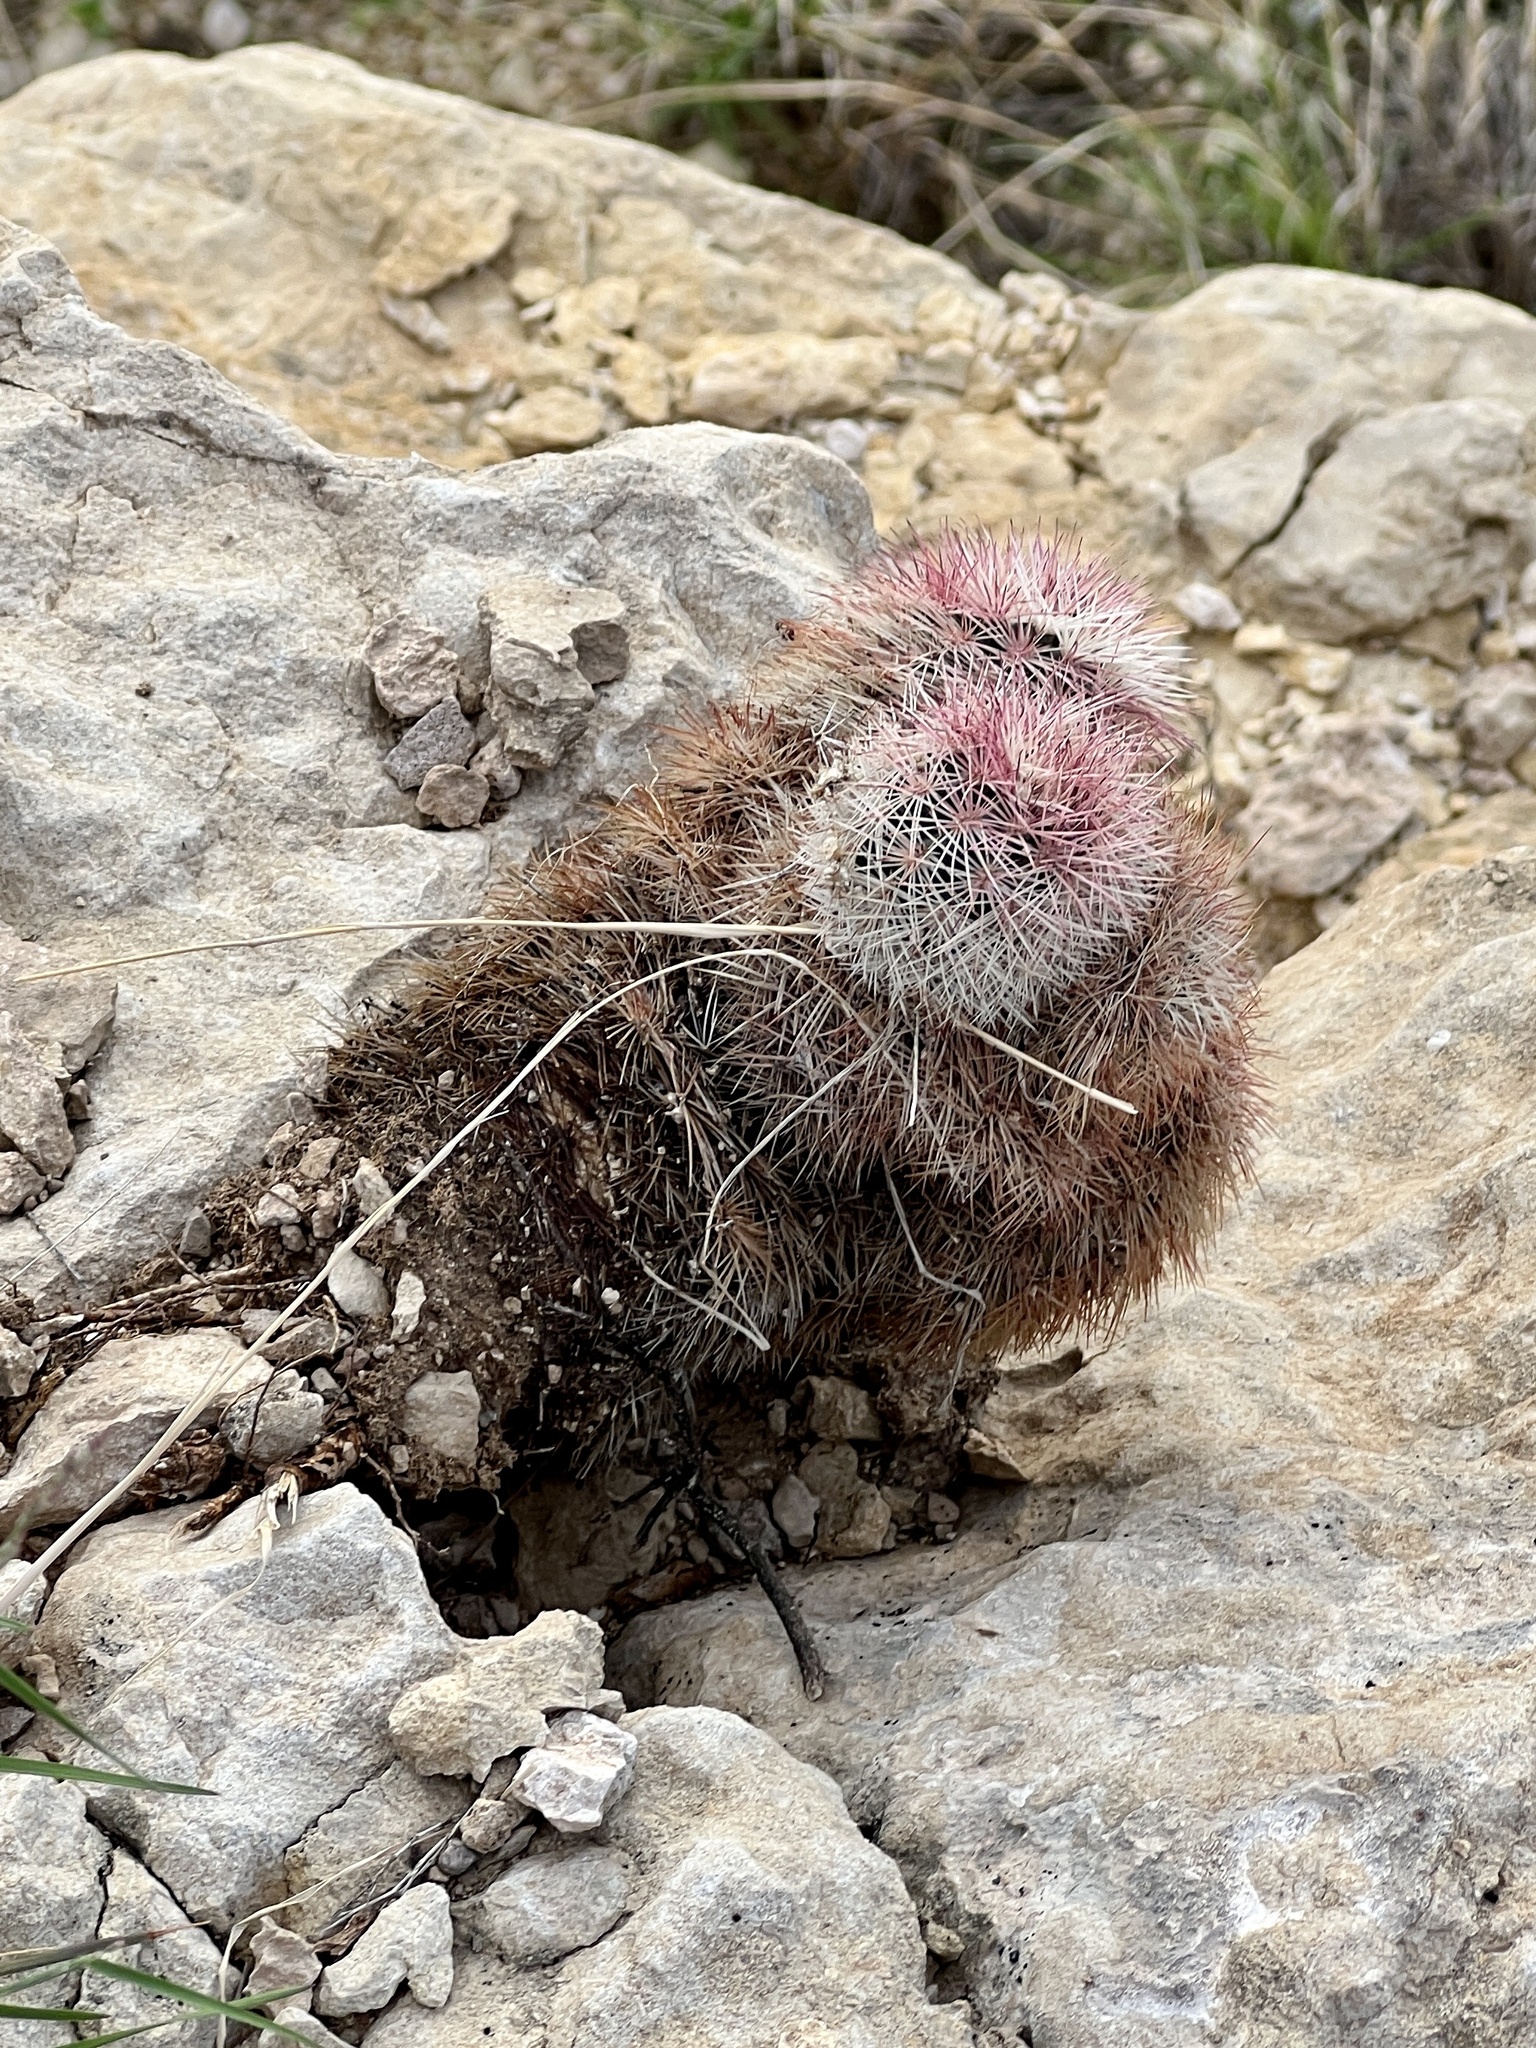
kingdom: Plantae
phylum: Tracheophyta
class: Magnoliopsida
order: Caryophyllales
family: Cactaceae
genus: Echinocereus
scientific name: Echinocereus dasyacanthus
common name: Spiny hedgehog cactus
